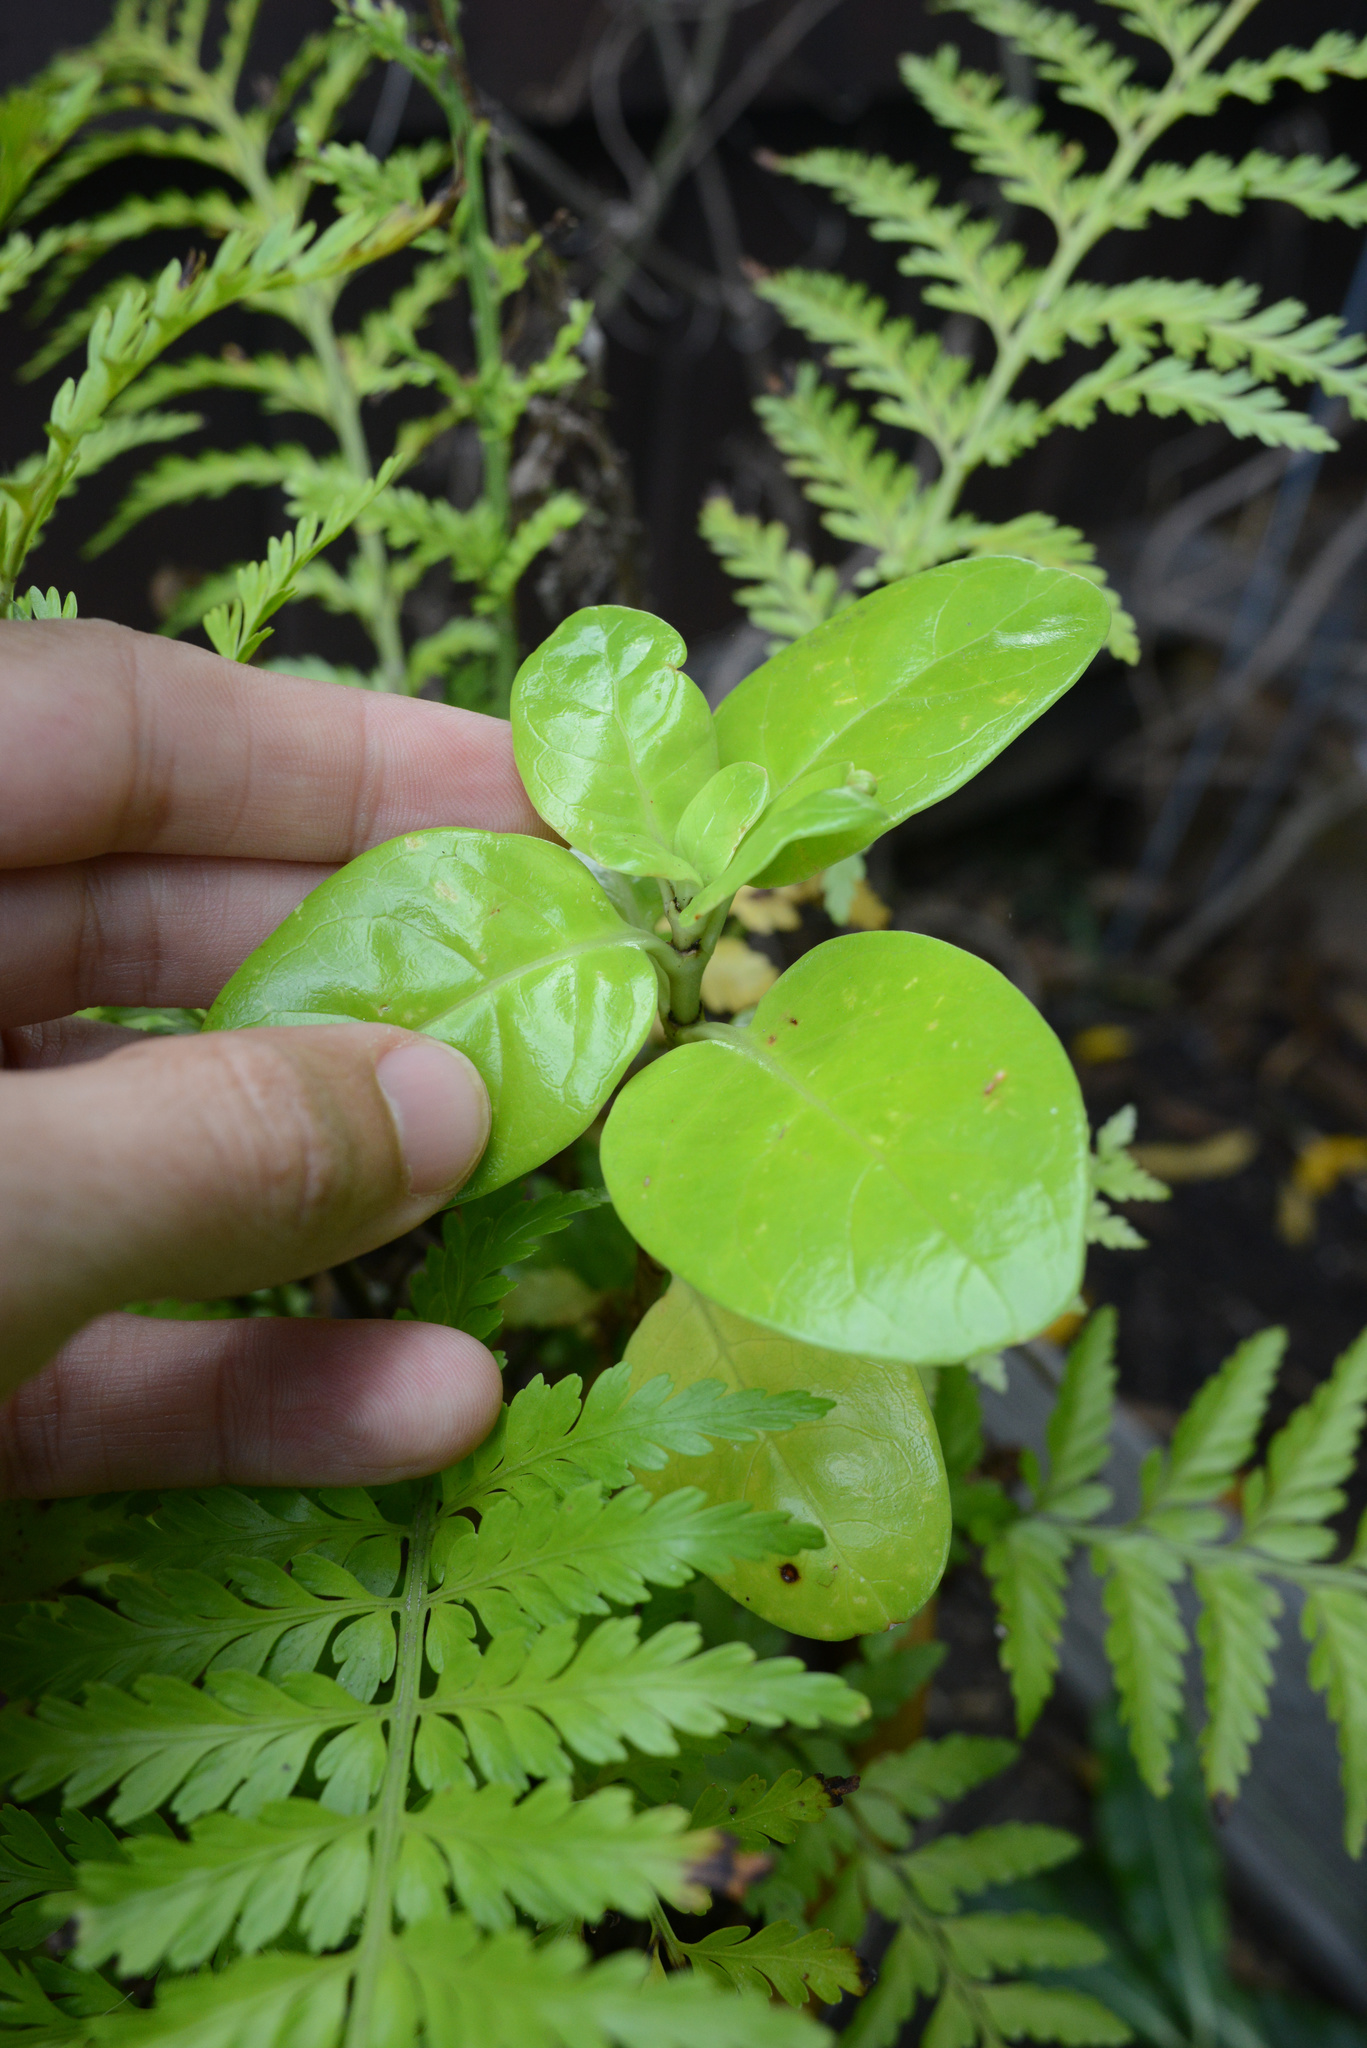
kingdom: Plantae
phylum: Tracheophyta
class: Magnoliopsida
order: Gentianales
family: Rubiaceae
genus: Coprosma
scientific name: Coprosma repens
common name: Tree bedstraw
